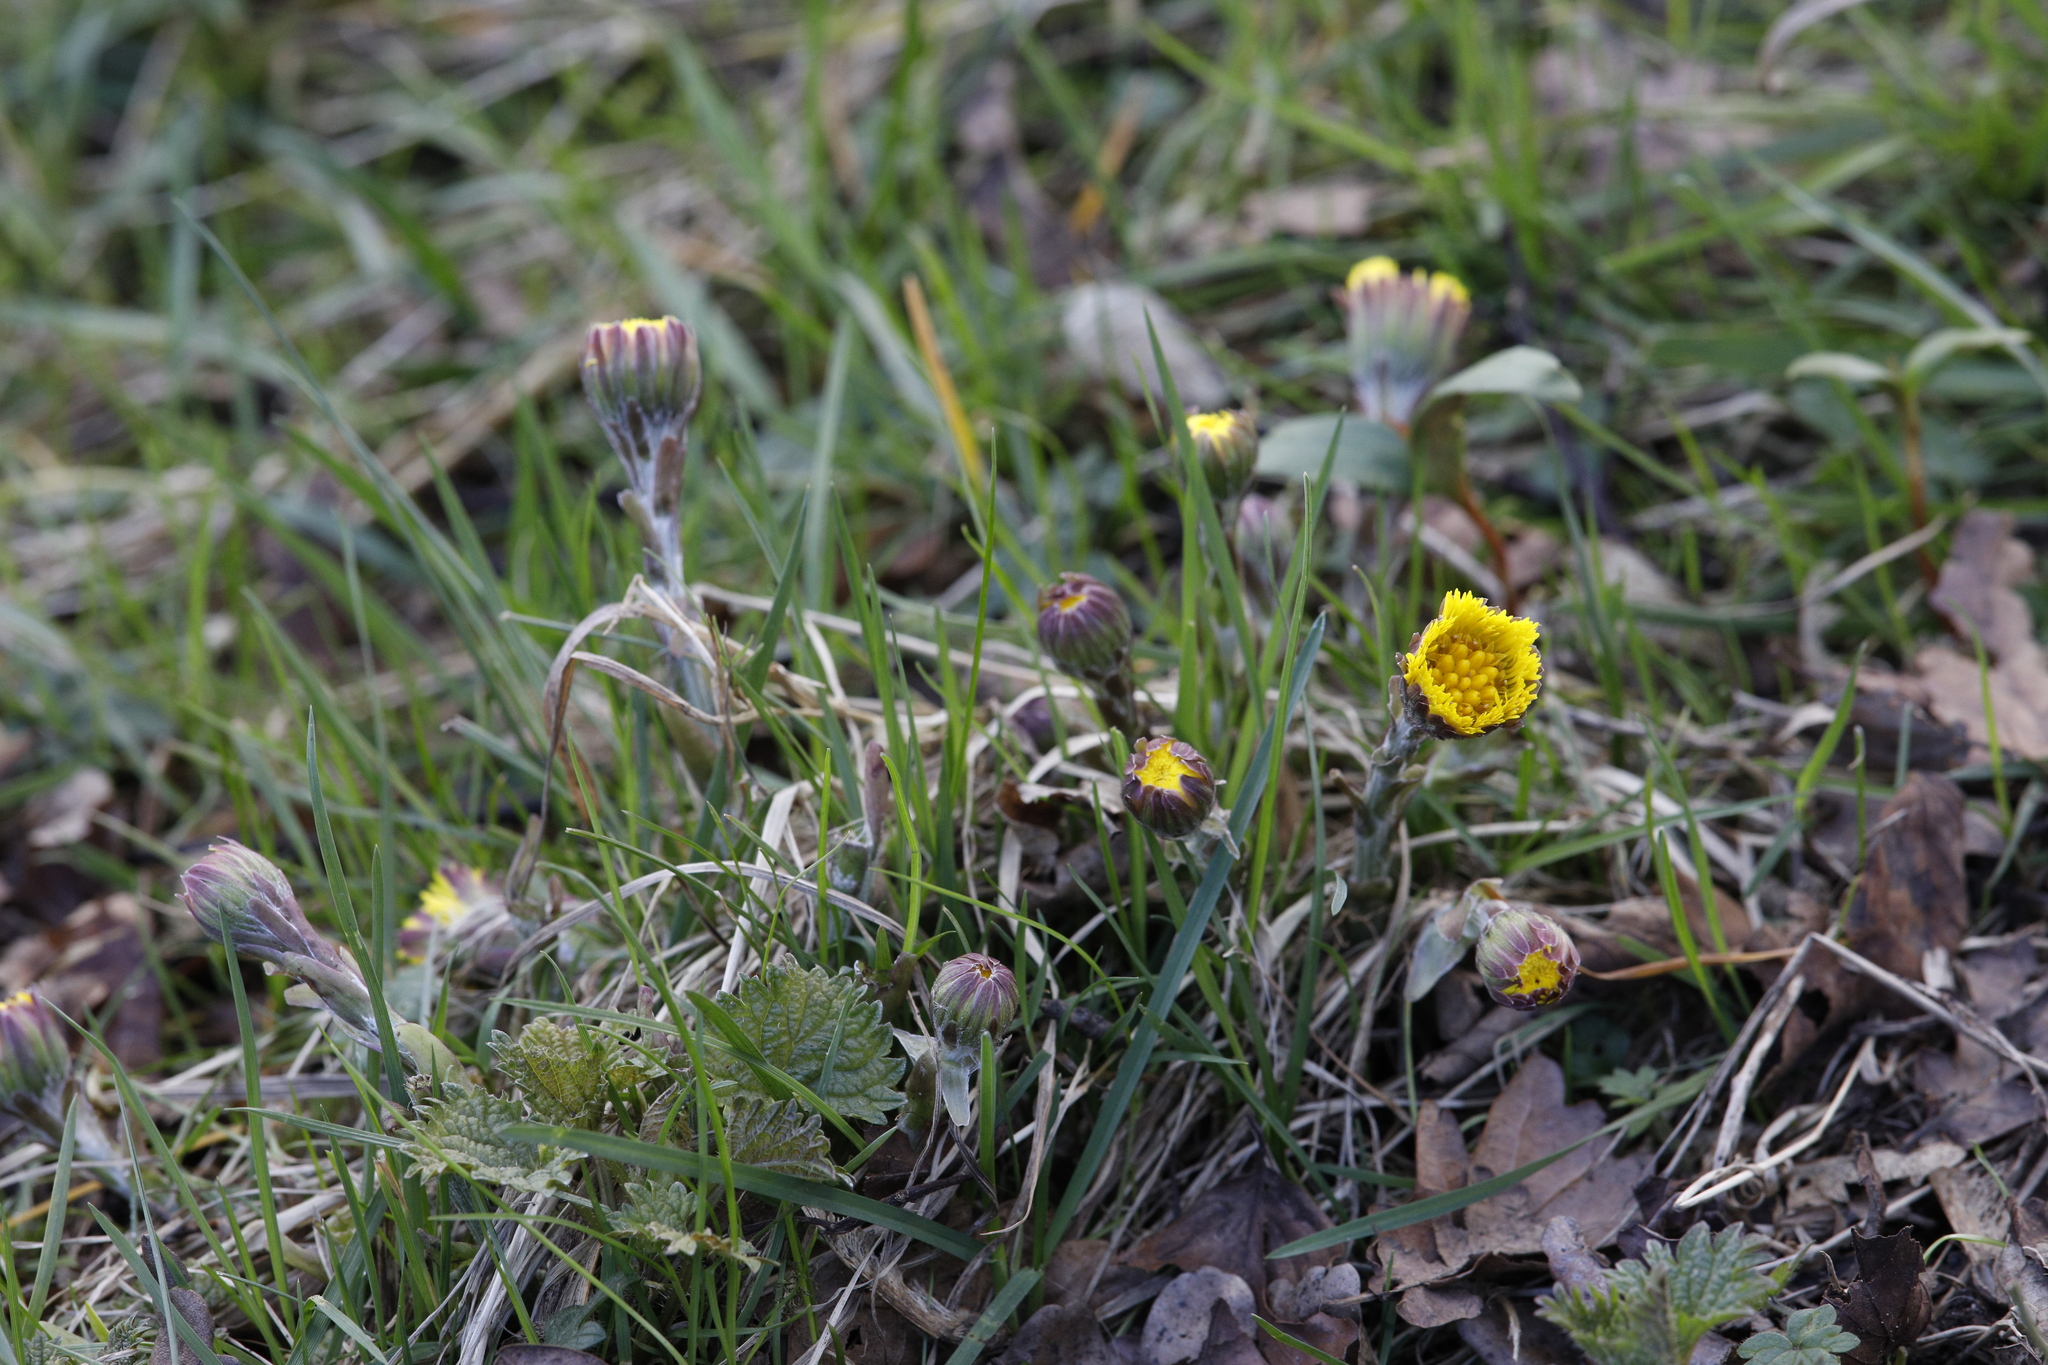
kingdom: Plantae
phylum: Tracheophyta
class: Magnoliopsida
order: Asterales
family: Asteraceae
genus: Tussilago
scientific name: Tussilago farfara
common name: Coltsfoot
